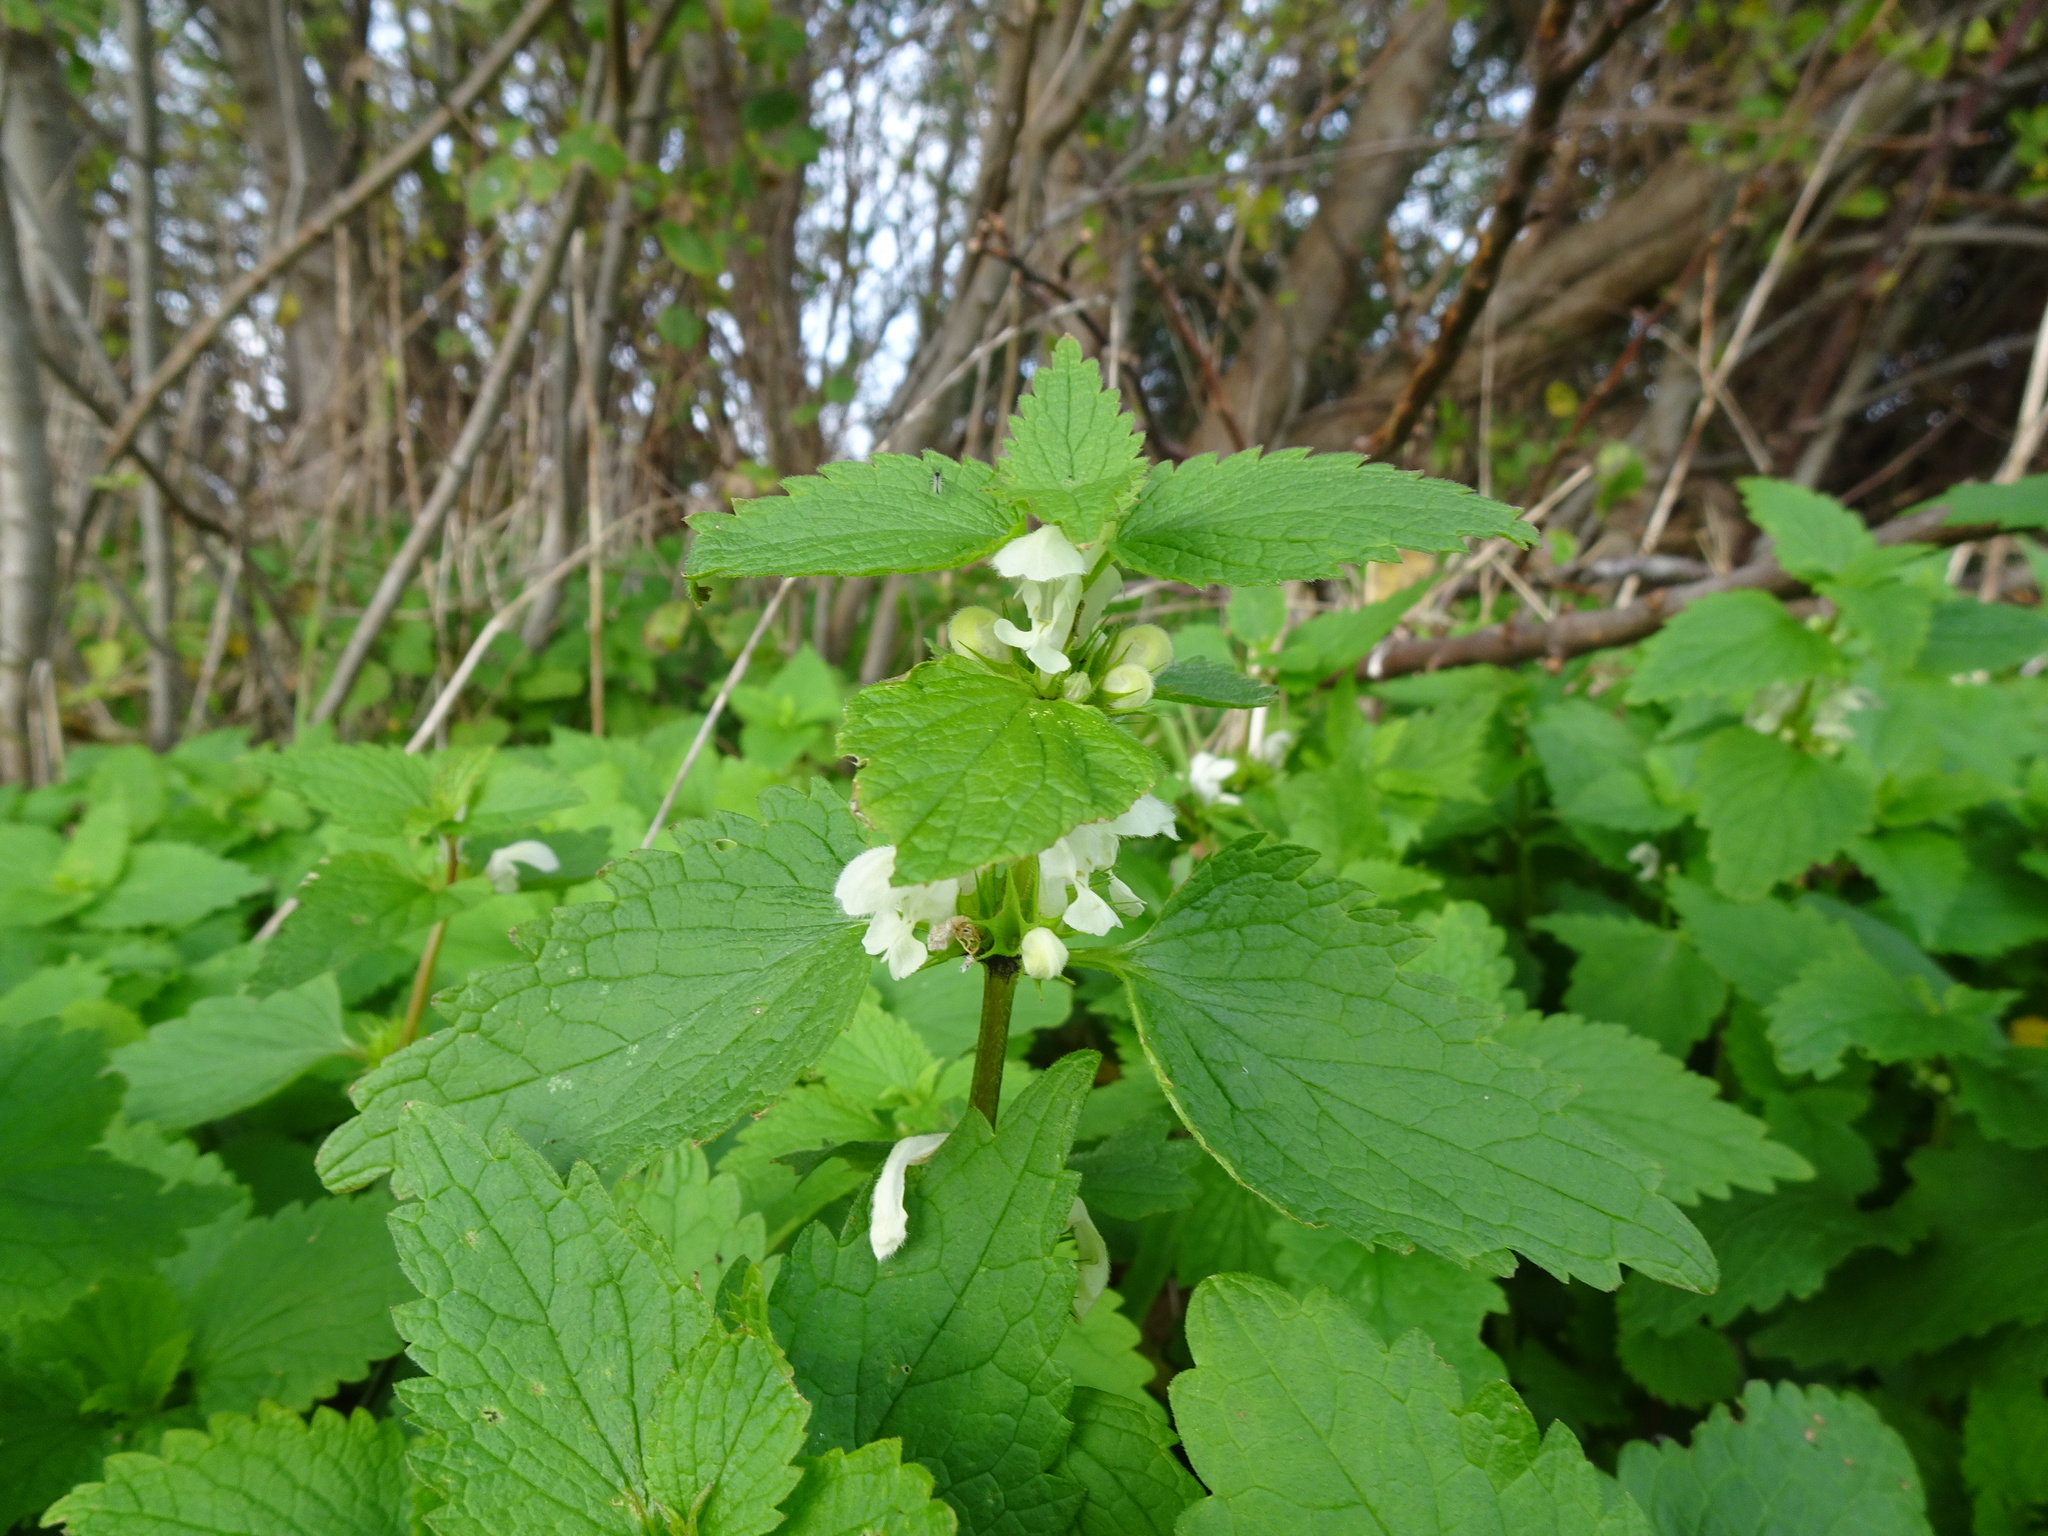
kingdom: Plantae
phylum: Tracheophyta
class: Magnoliopsida
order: Lamiales
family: Lamiaceae
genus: Lamium
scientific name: Lamium album
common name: White dead-nettle
